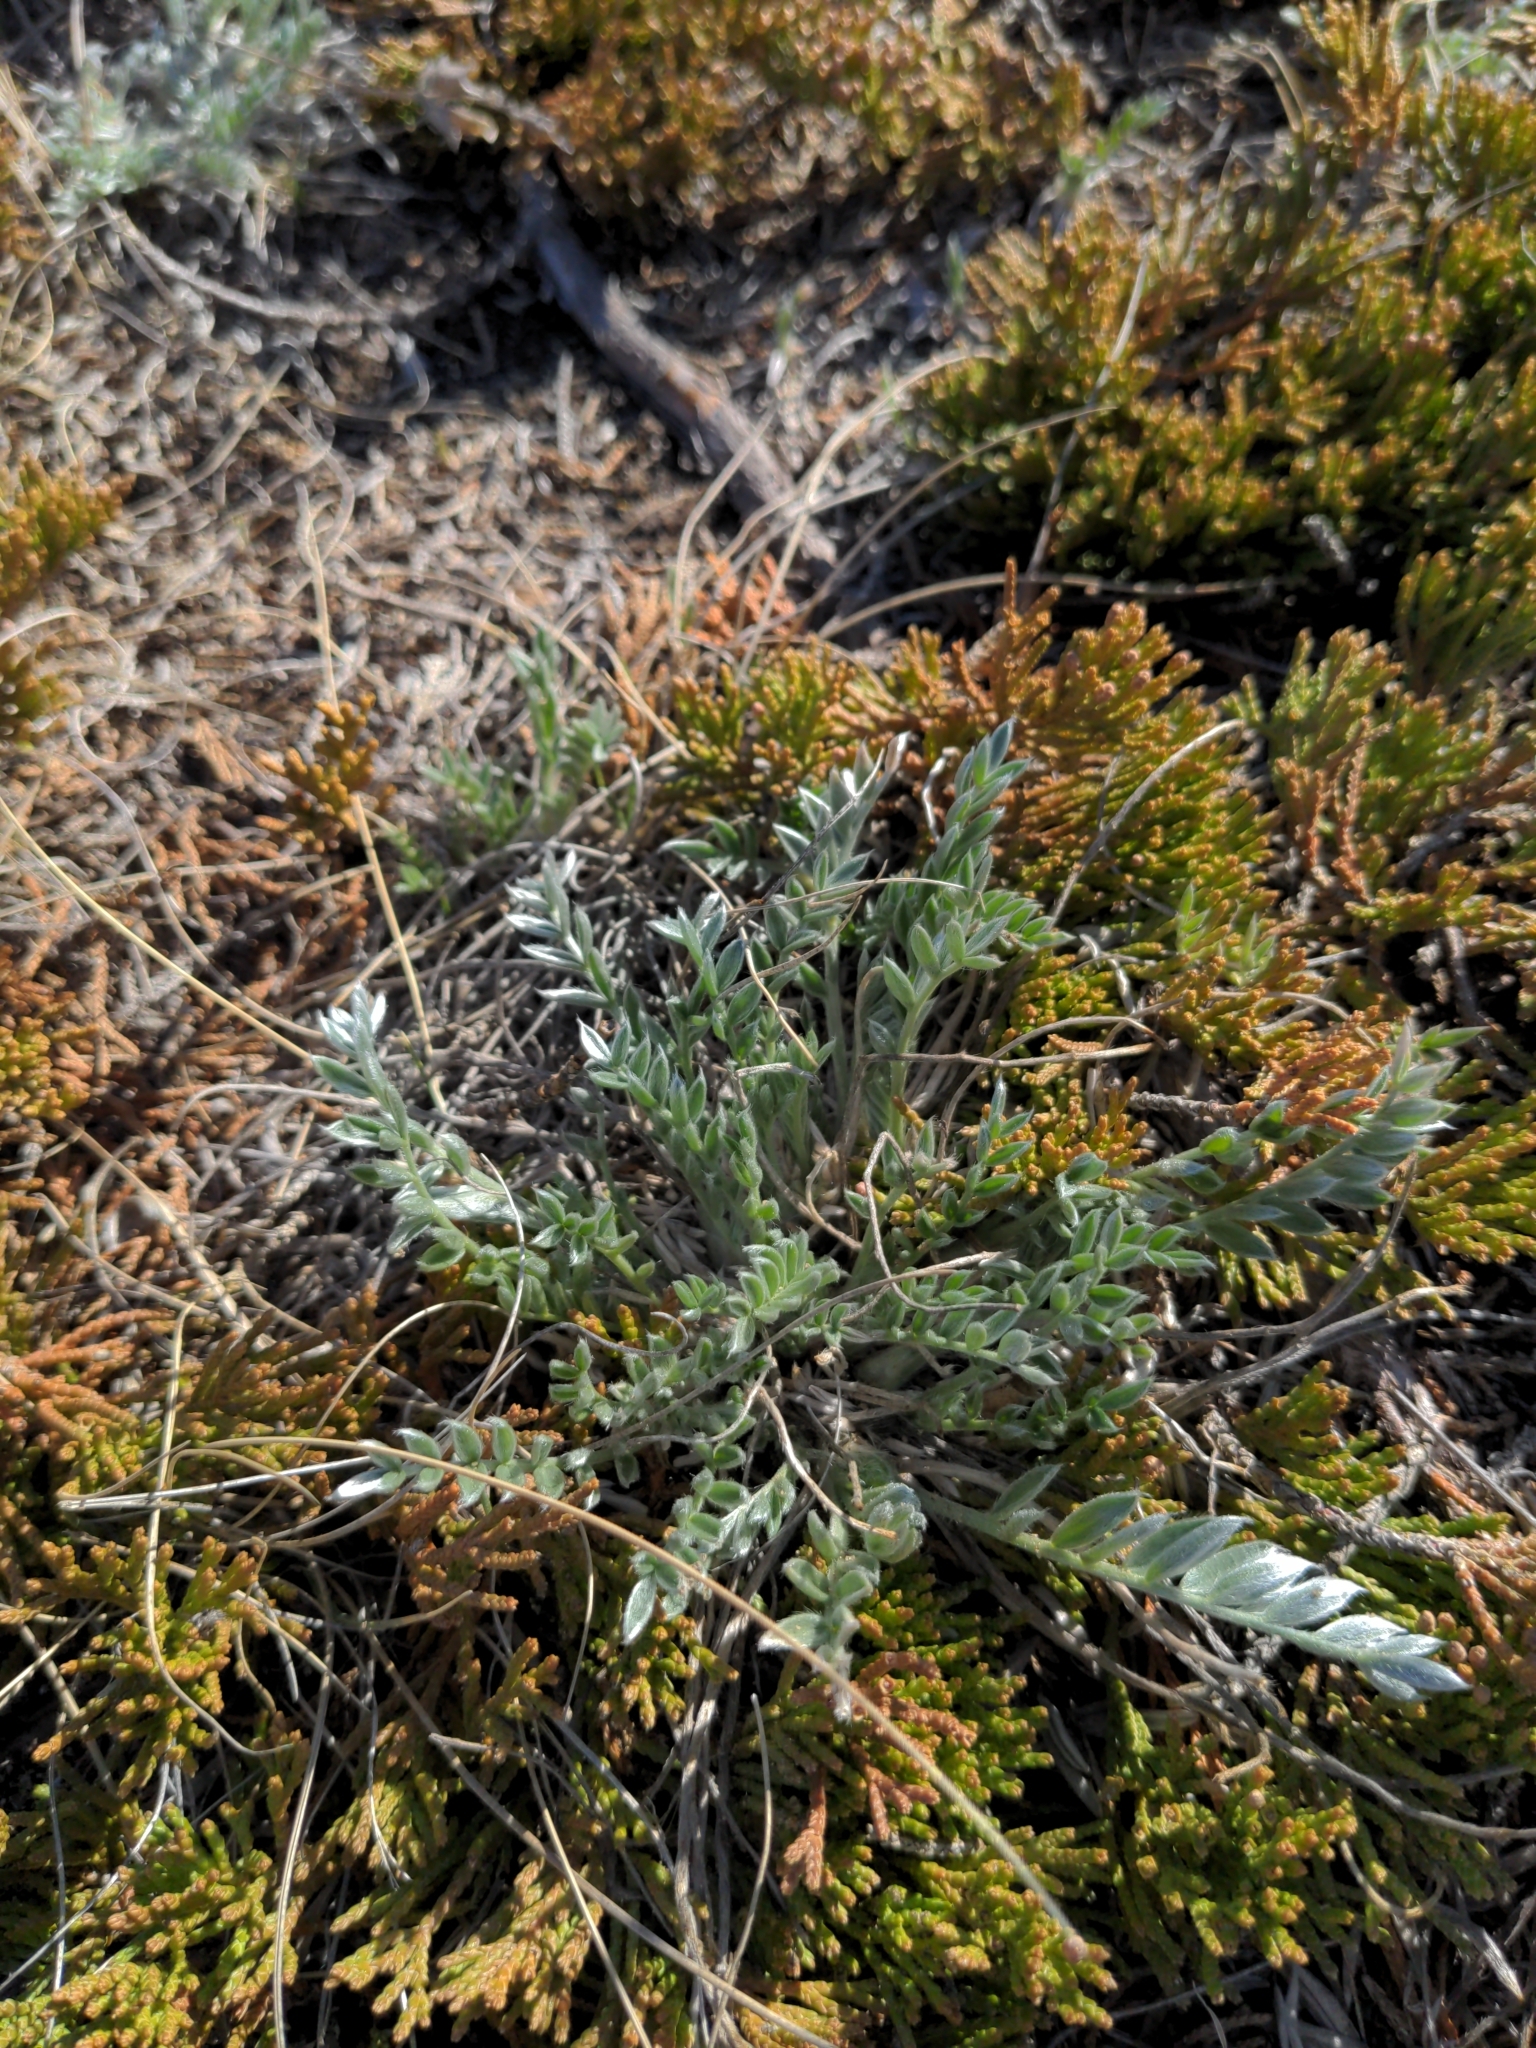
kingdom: Plantae
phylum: Tracheophyta
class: Magnoliopsida
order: Fabales
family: Fabaceae
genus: Oxytropis
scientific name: Oxytropis sericea
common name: Silky locoweed
